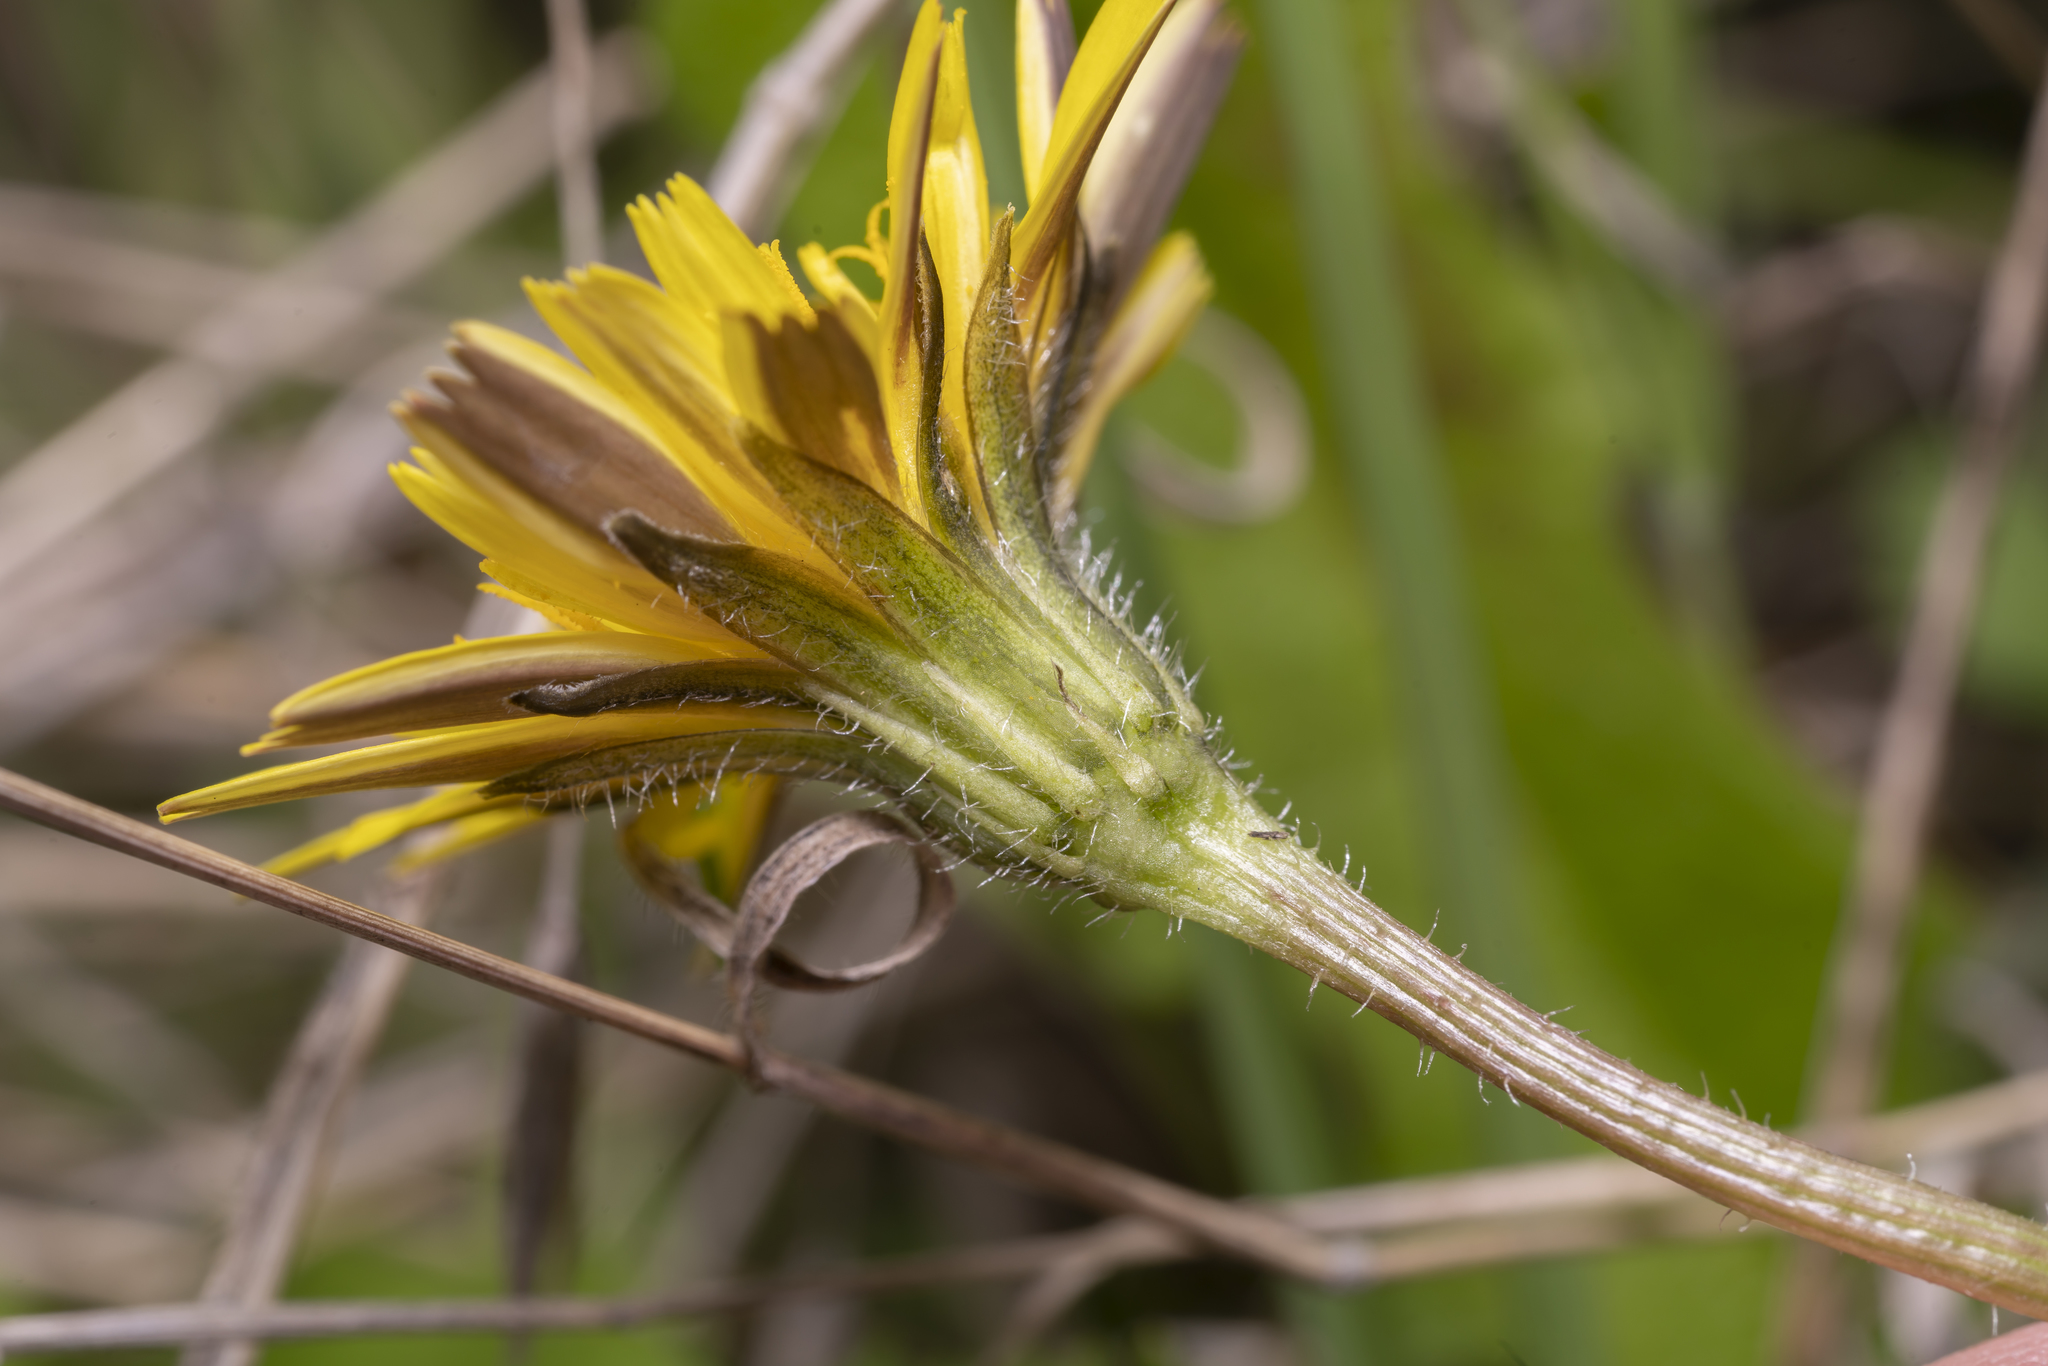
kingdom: Plantae
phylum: Tracheophyta
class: Magnoliopsida
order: Asterales
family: Asteraceae
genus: Leontodon
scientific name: Leontodon tuberosus
